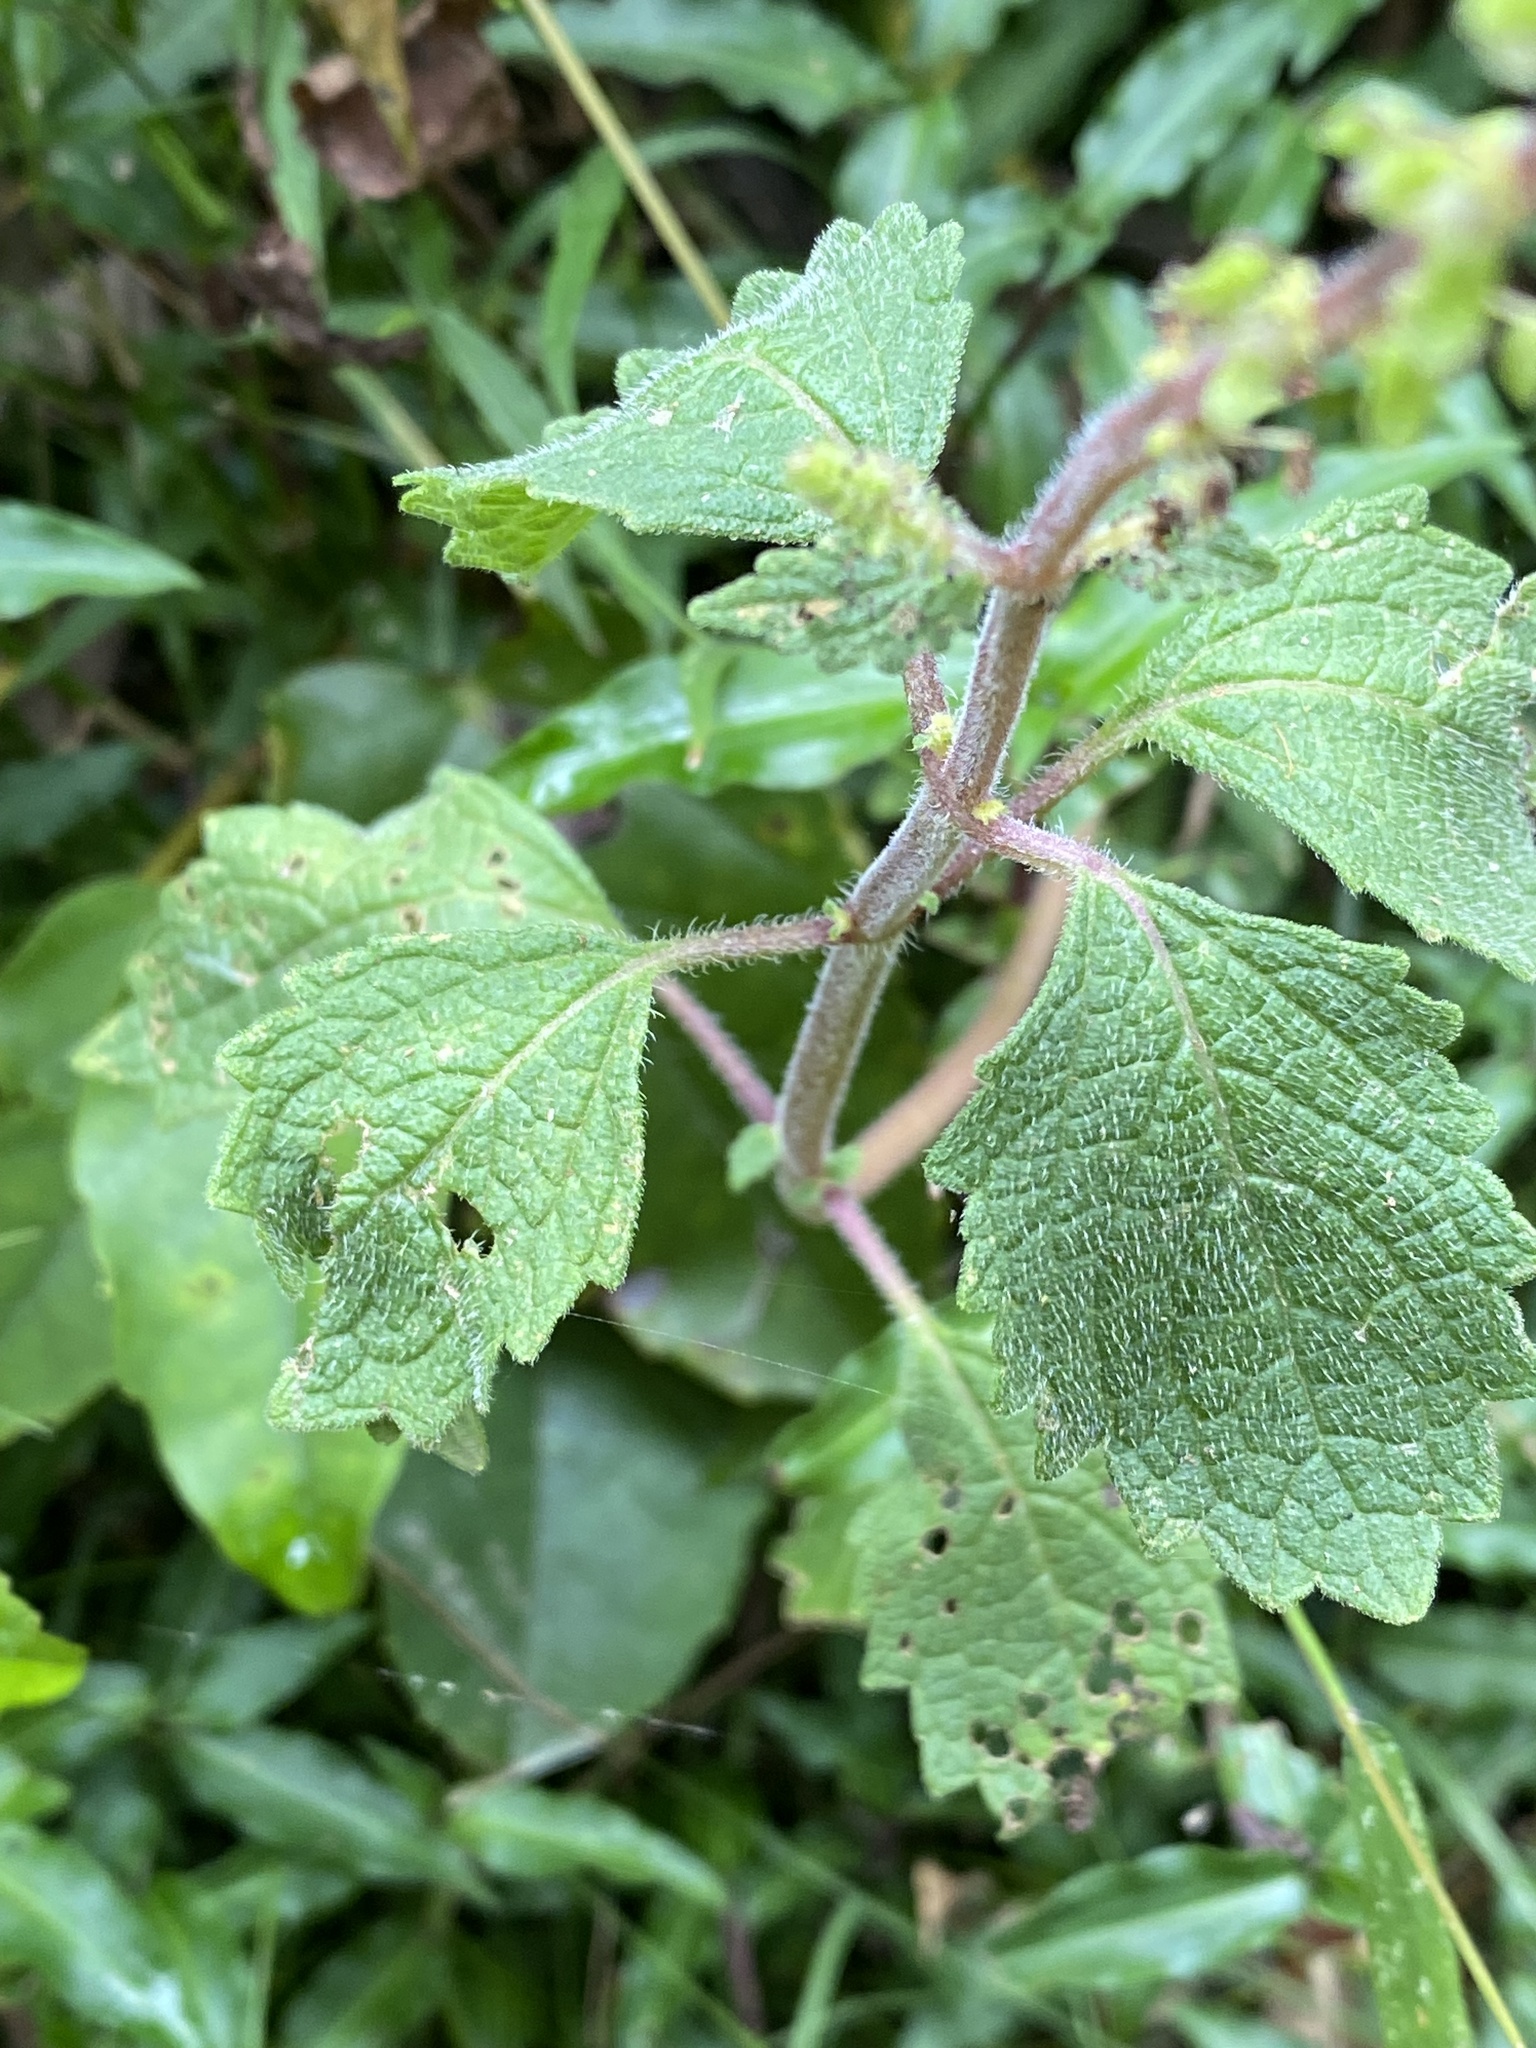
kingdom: Plantae
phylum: Tracheophyta
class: Magnoliopsida
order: Lamiales
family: Lamiaceae
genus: Coleus
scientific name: Coleus australis
